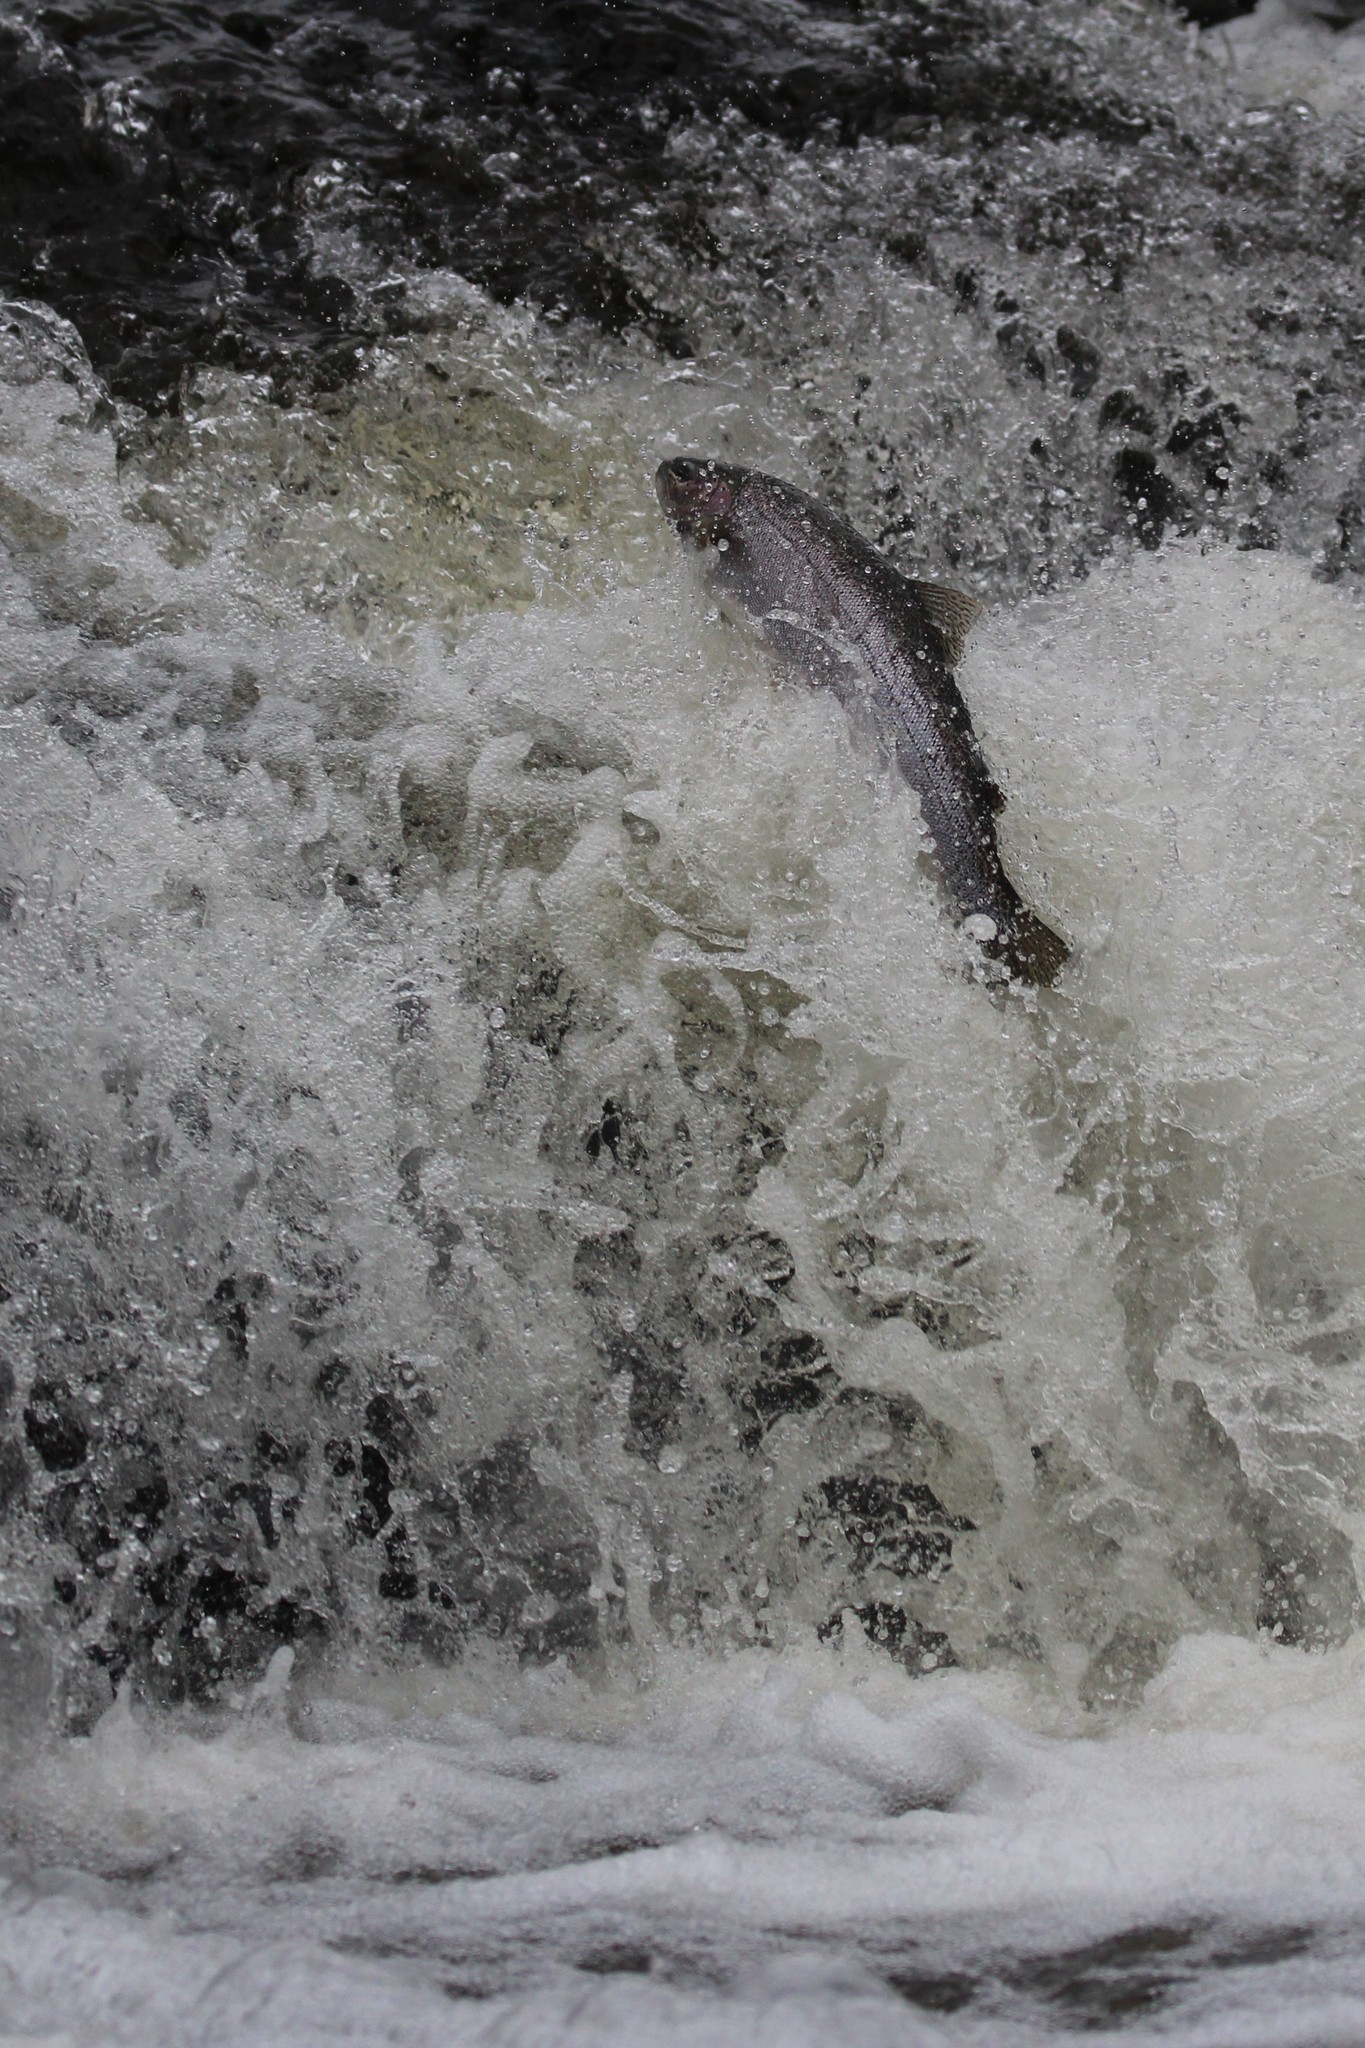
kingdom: Animalia
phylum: Chordata
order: Salmoniformes
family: Salmonidae
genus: Oncorhynchus
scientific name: Oncorhynchus mykiss
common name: Rainbow trout
